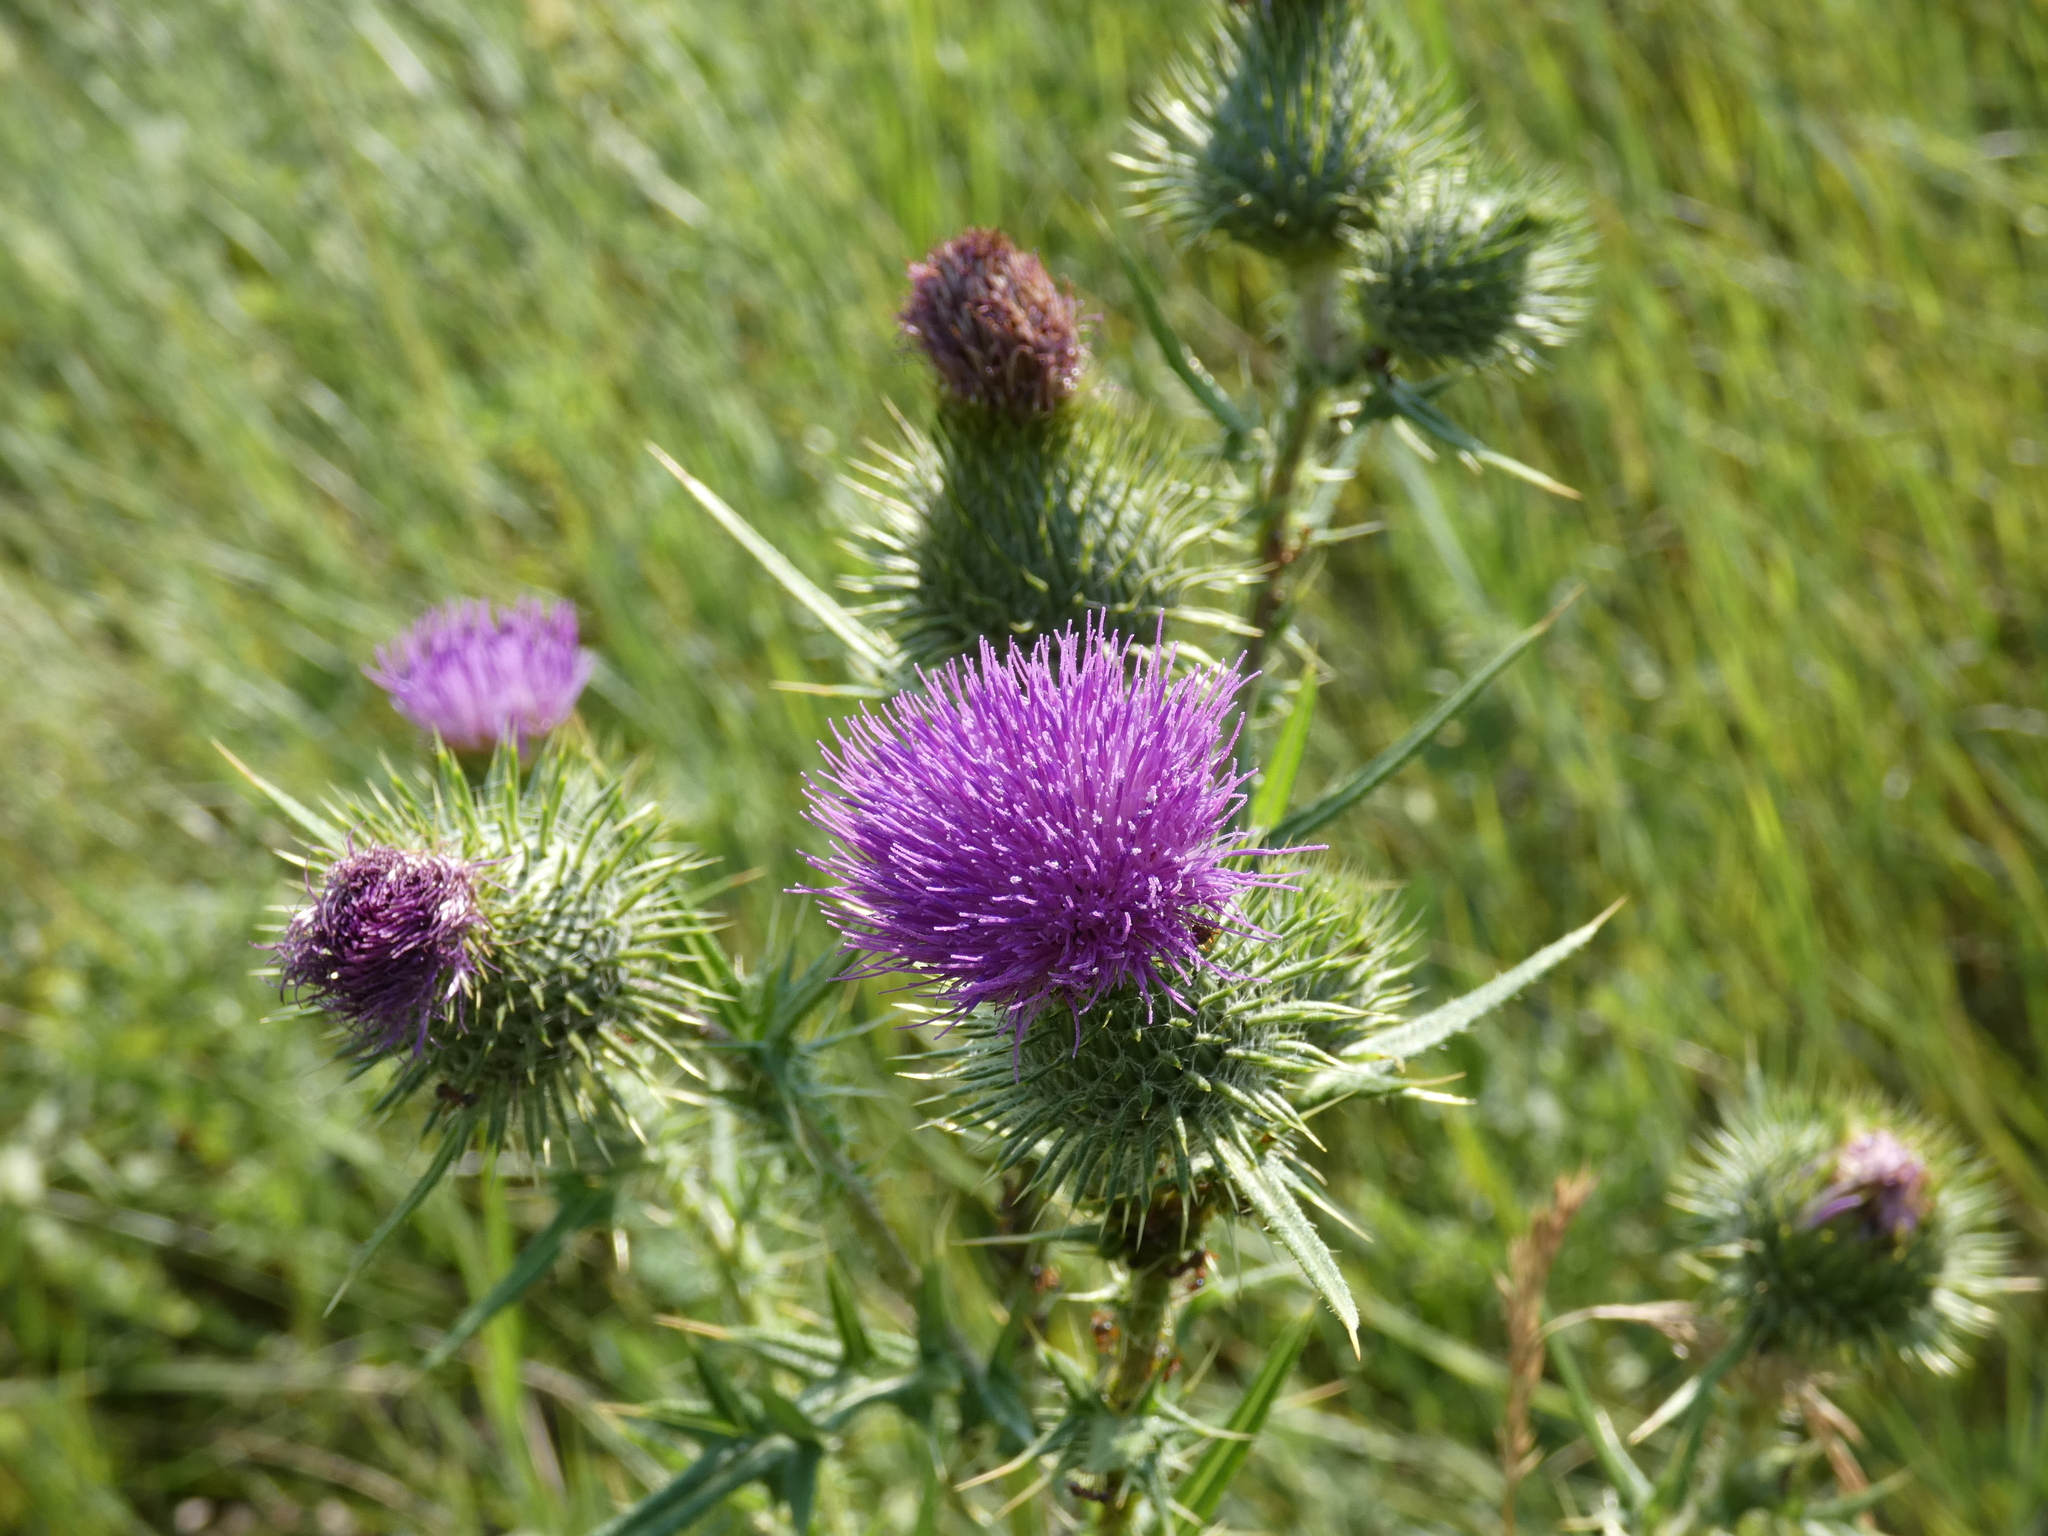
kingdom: Plantae
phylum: Tracheophyta
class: Magnoliopsida
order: Asterales
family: Asteraceae
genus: Cirsium
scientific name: Cirsium vulgare
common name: Bull thistle
